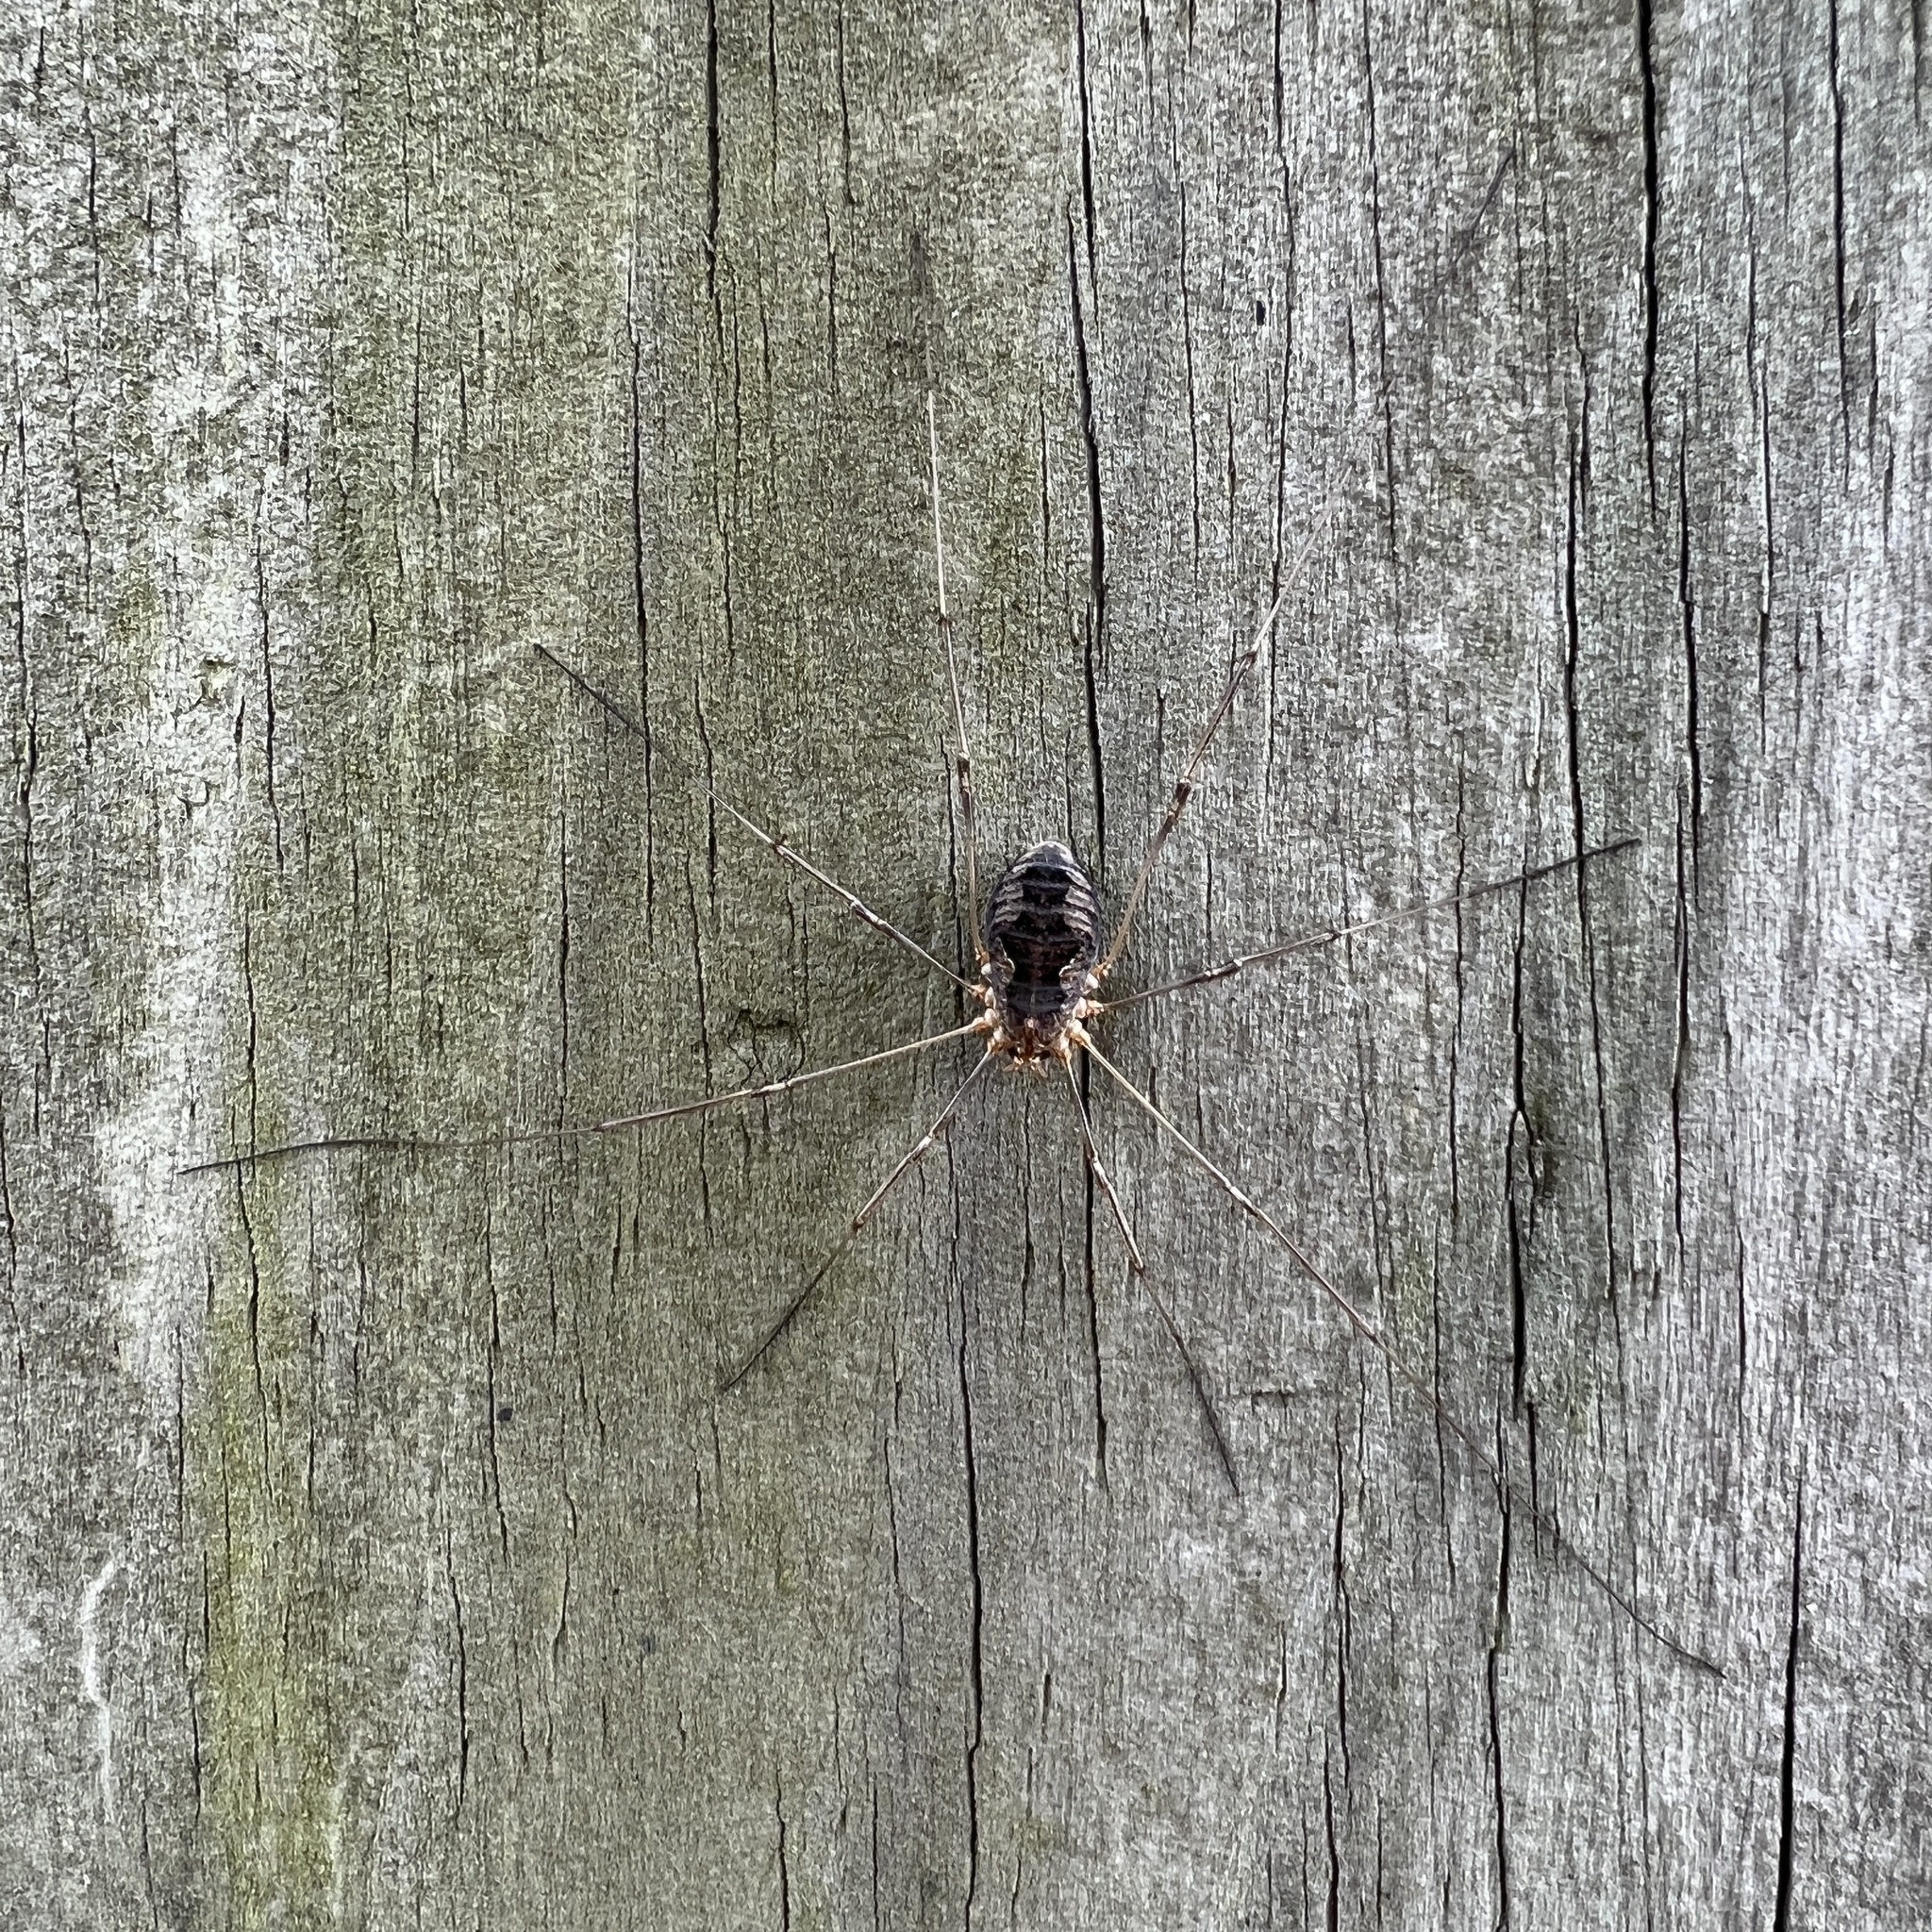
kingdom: Animalia
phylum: Arthropoda
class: Arachnida
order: Opiliones
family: Phalangiidae
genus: Phalangium
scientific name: Phalangium opilio
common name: Daddy longleg
